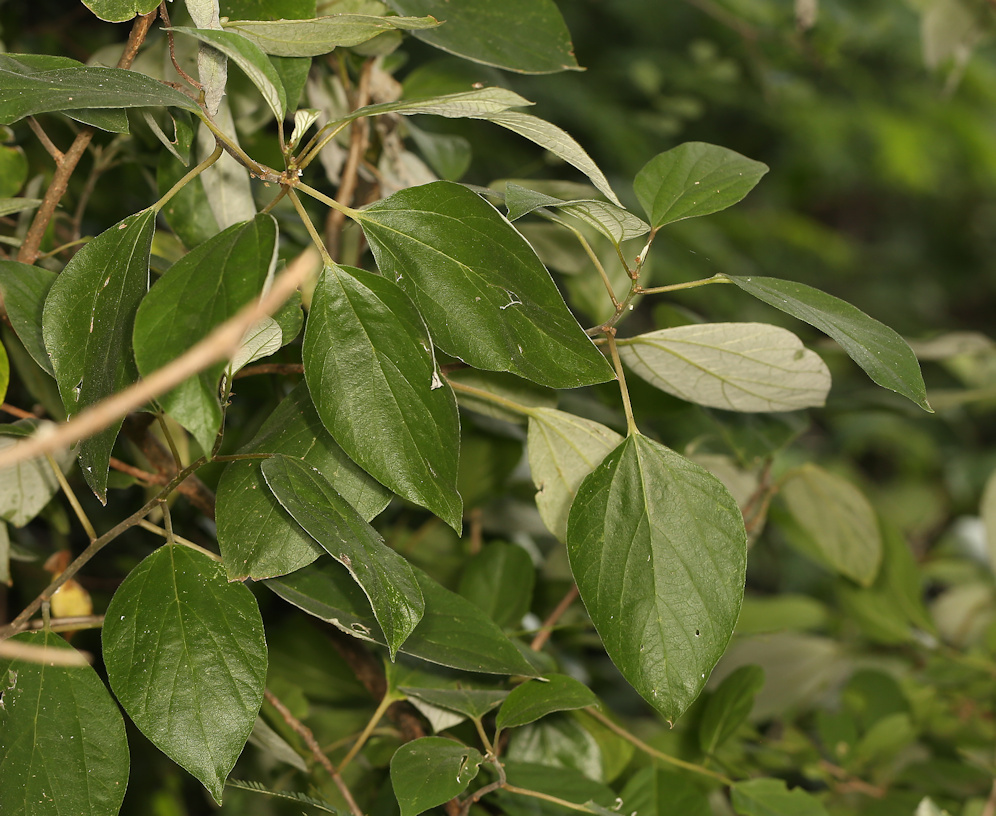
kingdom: Plantae
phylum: Tracheophyta
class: Magnoliopsida
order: Rosales
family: Urticaceae
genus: Pouzolzia
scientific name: Pouzolzia mixta
